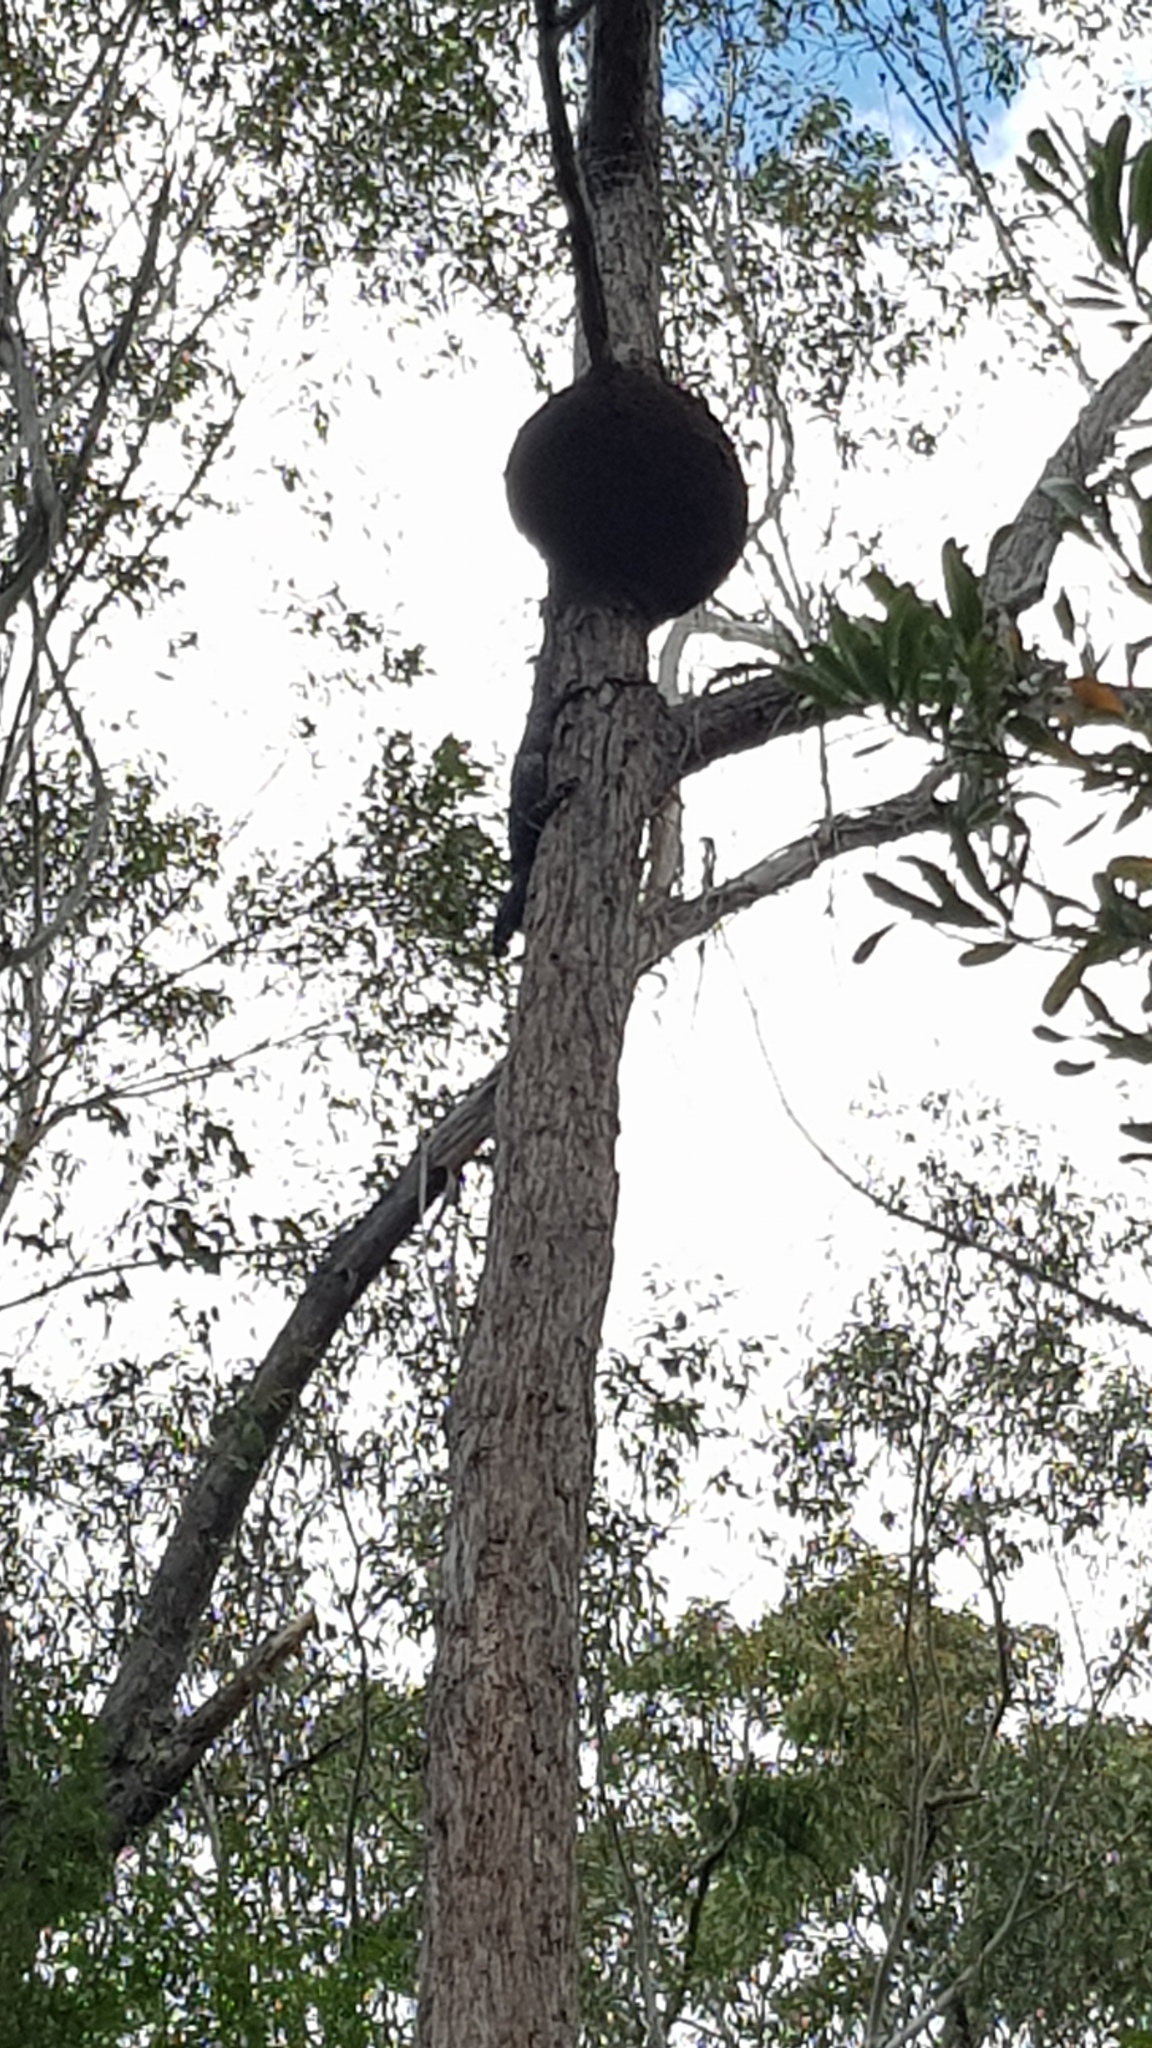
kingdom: Animalia
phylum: Chordata
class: Squamata
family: Varanidae
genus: Varanus
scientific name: Varanus varius
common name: Lace monitor
